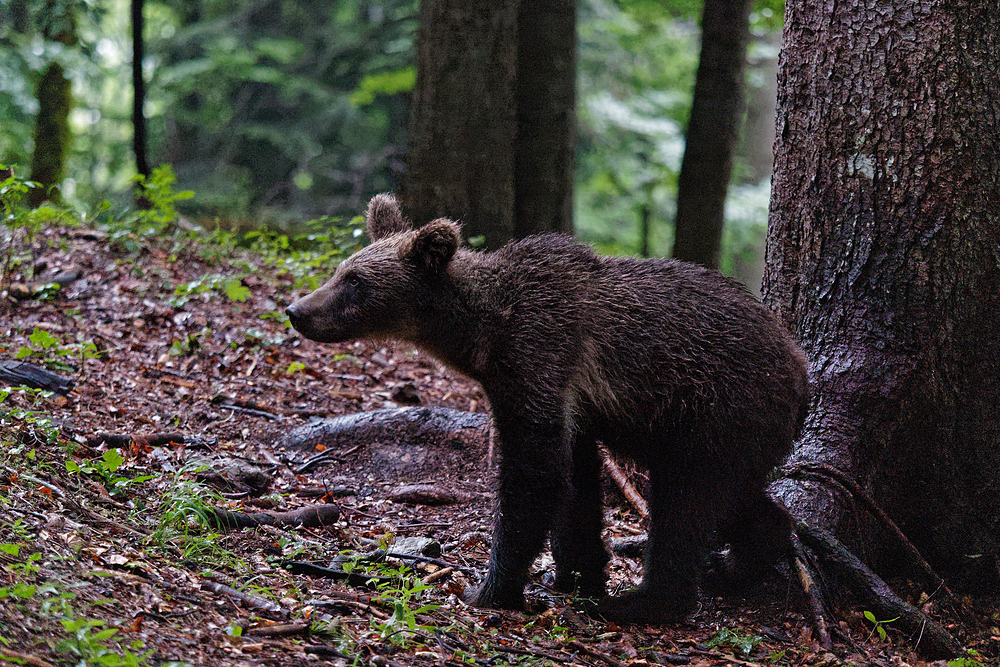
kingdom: Animalia
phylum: Chordata
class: Mammalia
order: Carnivora
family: Ursidae
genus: Ursus
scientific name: Ursus arctos
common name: Brown bear
